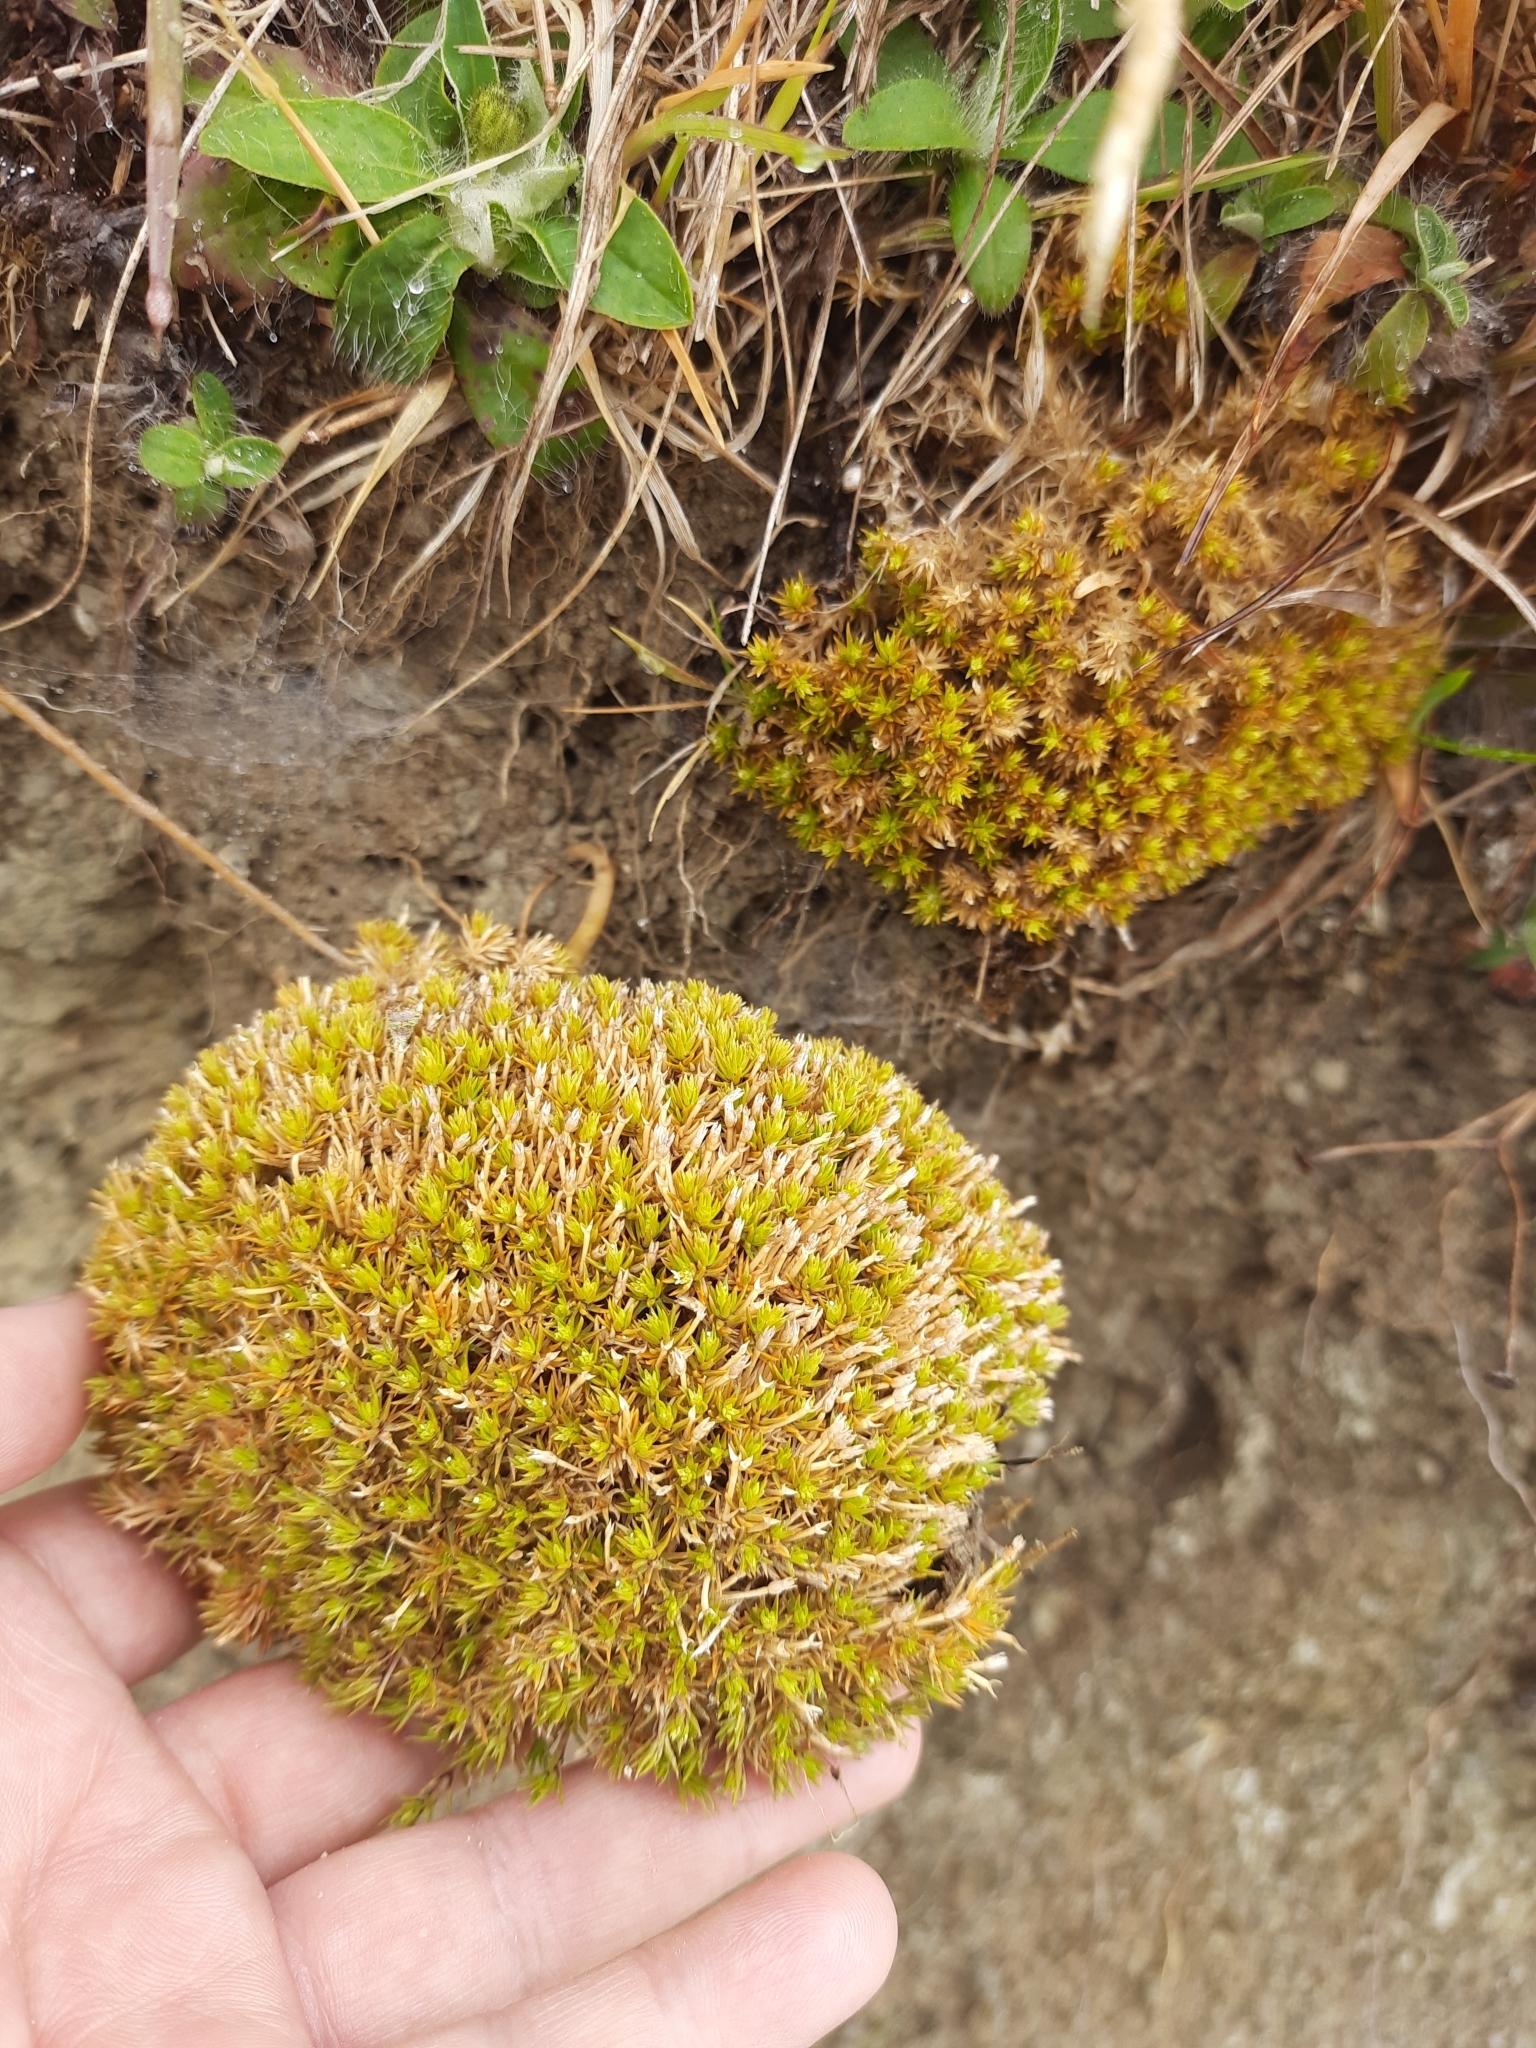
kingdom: Plantae
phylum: Tracheophyta
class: Magnoliopsida
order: Caryophyllales
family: Caryophyllaceae
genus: Scleranthus
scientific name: Scleranthus uniflorus
